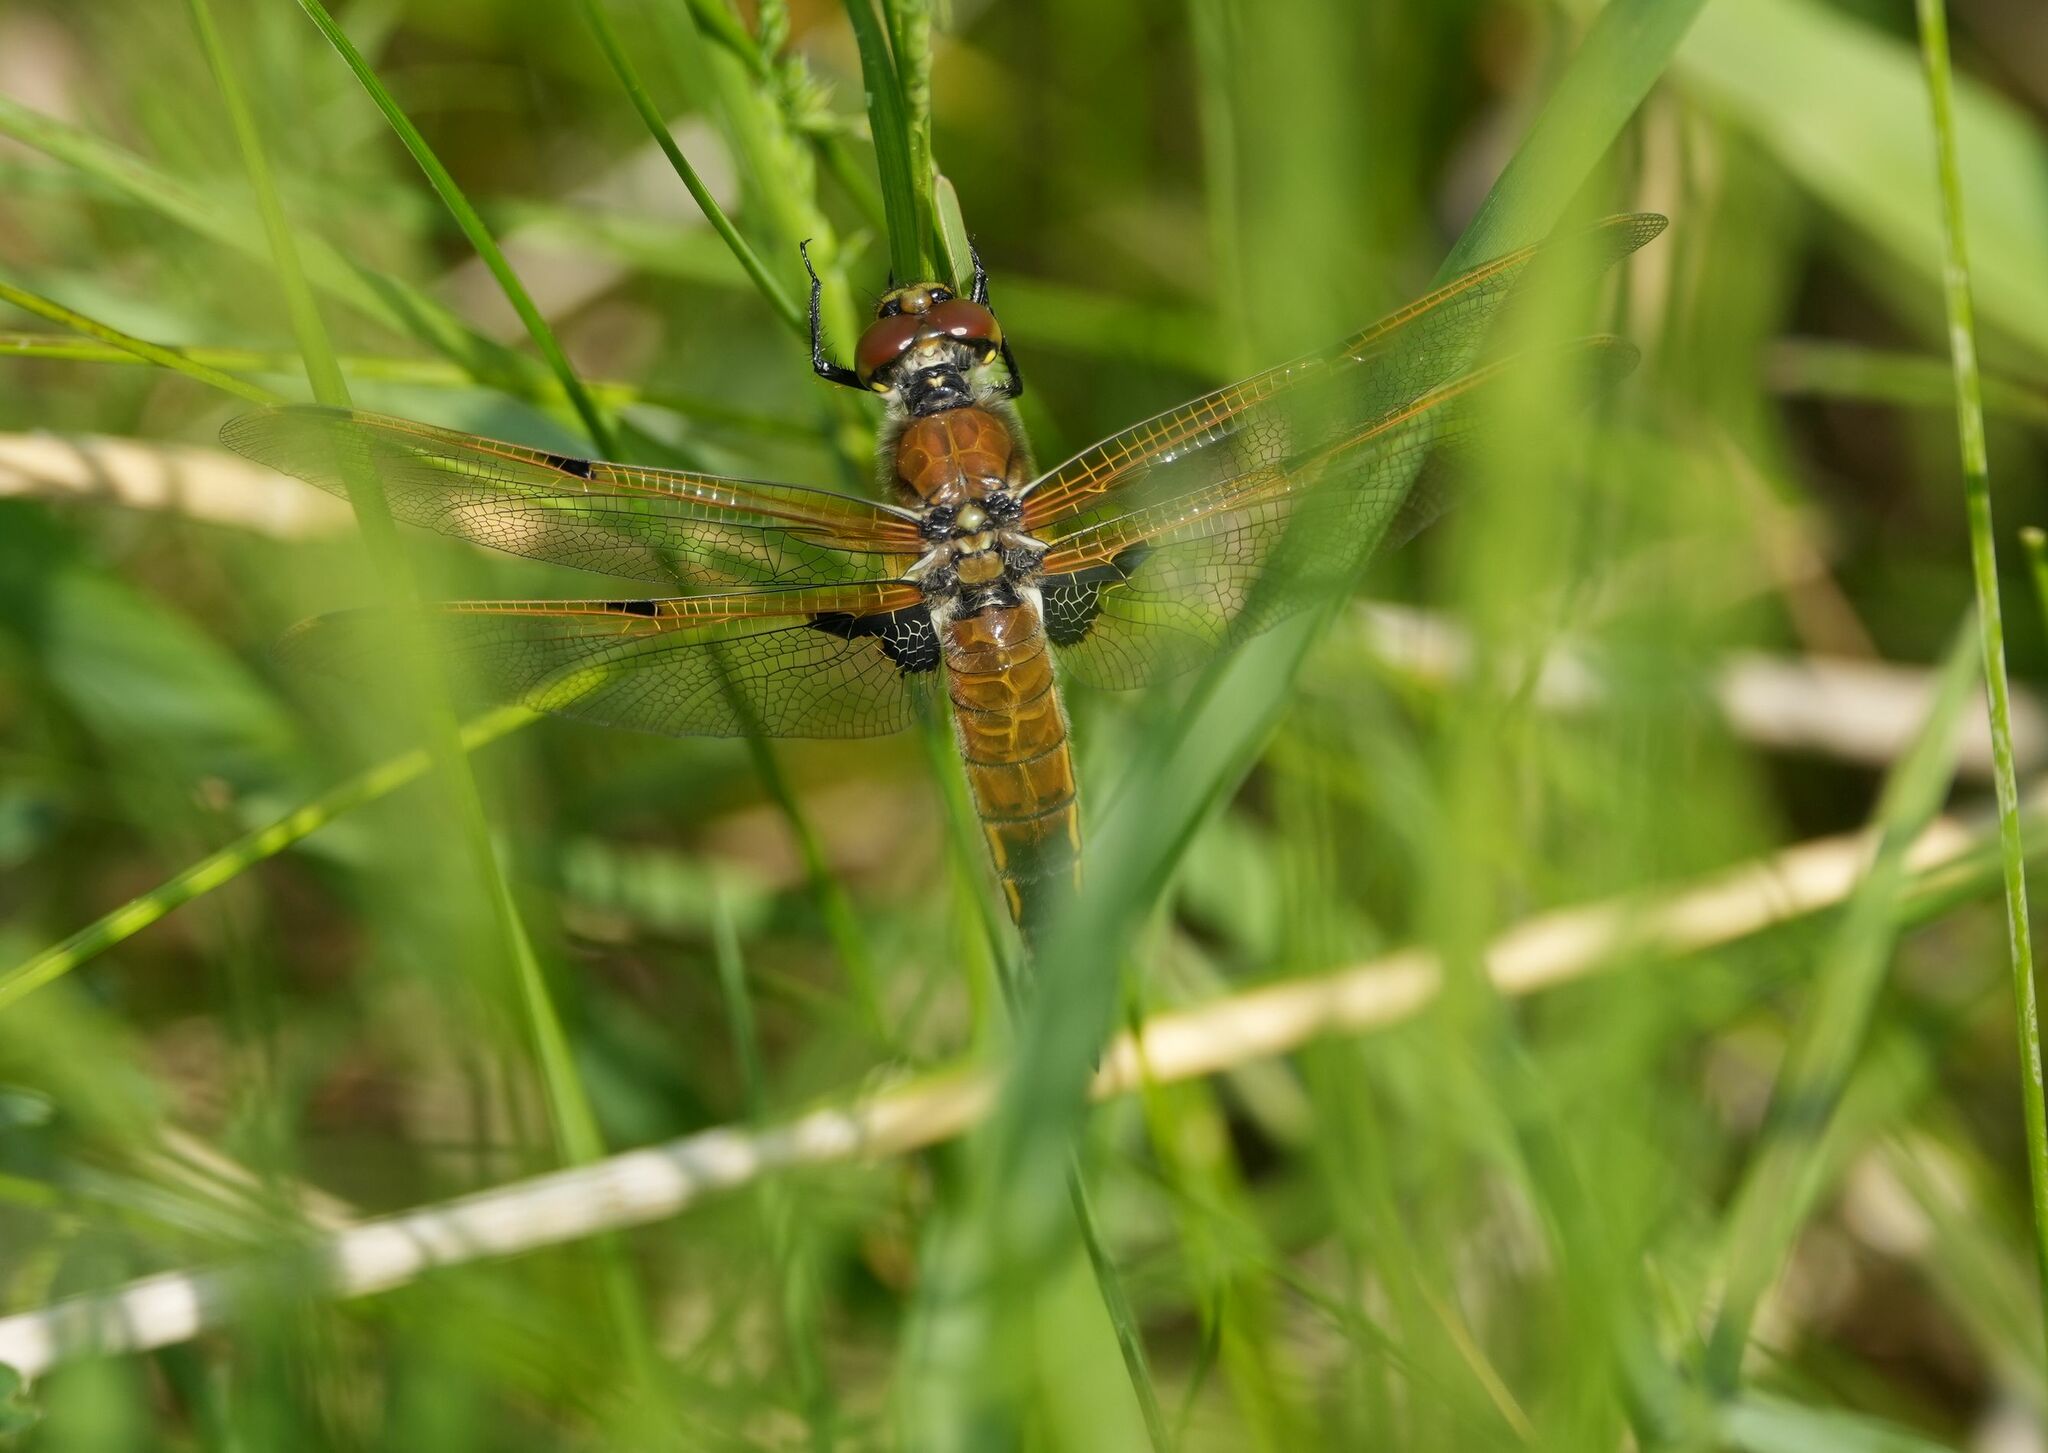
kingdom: Animalia
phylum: Arthropoda
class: Insecta
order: Odonata
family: Libellulidae
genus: Libellula
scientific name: Libellula quadrimaculata
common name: Four-spotted chaser
